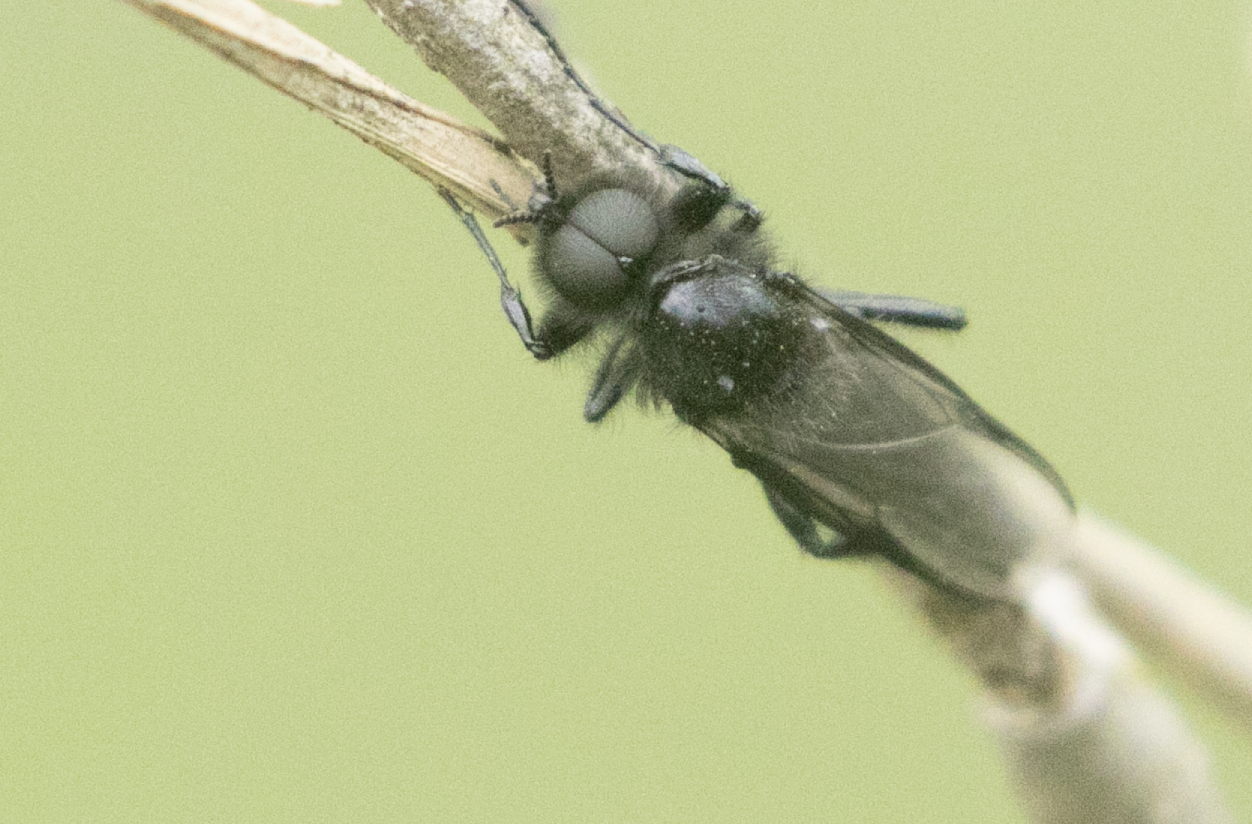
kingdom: Animalia
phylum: Arthropoda
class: Insecta
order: Diptera
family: Bibionidae
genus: Bibio
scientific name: Bibio marci
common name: St marks fly
